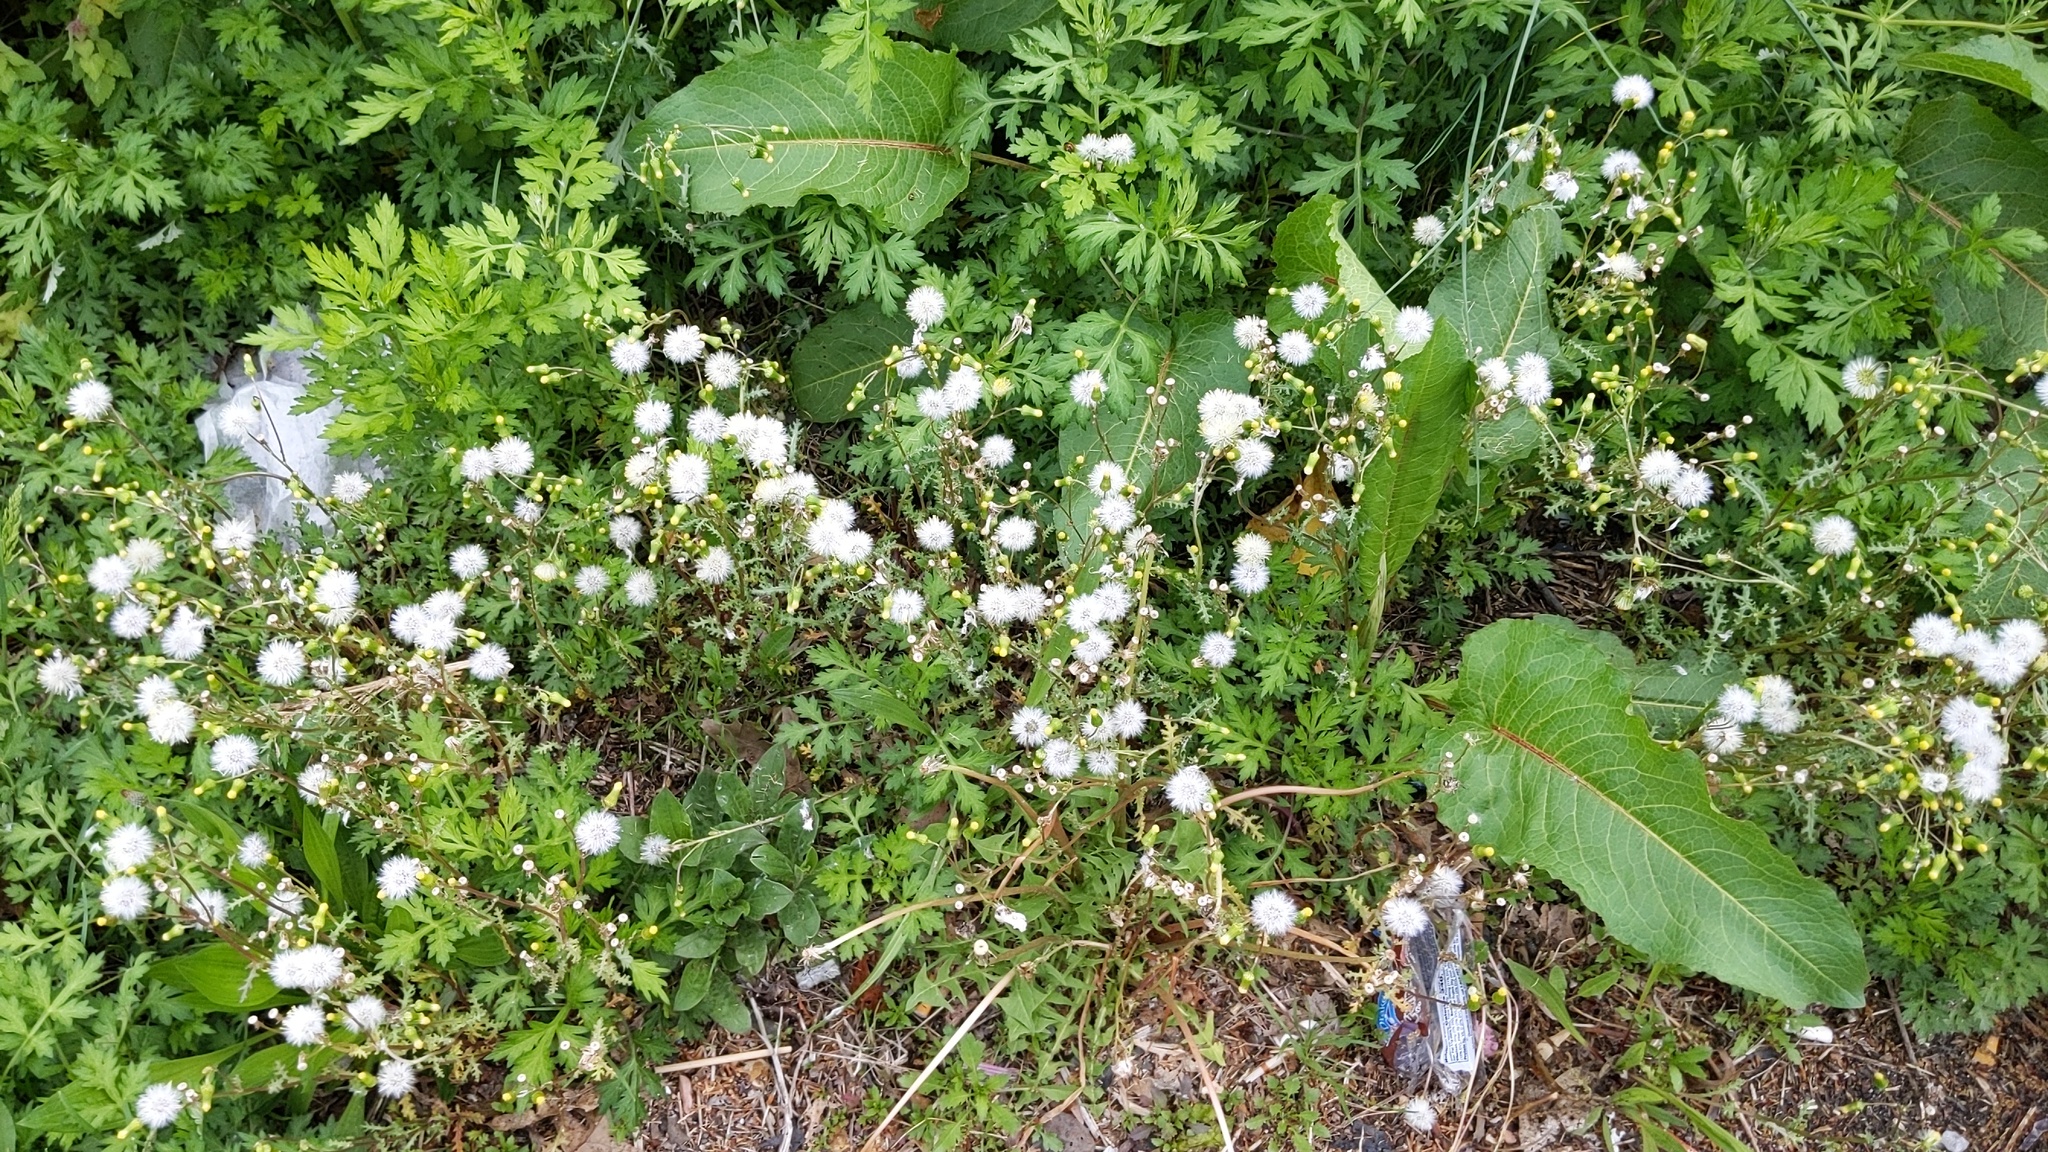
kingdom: Plantae
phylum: Tracheophyta
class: Magnoliopsida
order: Asterales
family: Asteraceae
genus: Senecio
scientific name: Senecio vulgaris
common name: Old-man-in-the-spring
